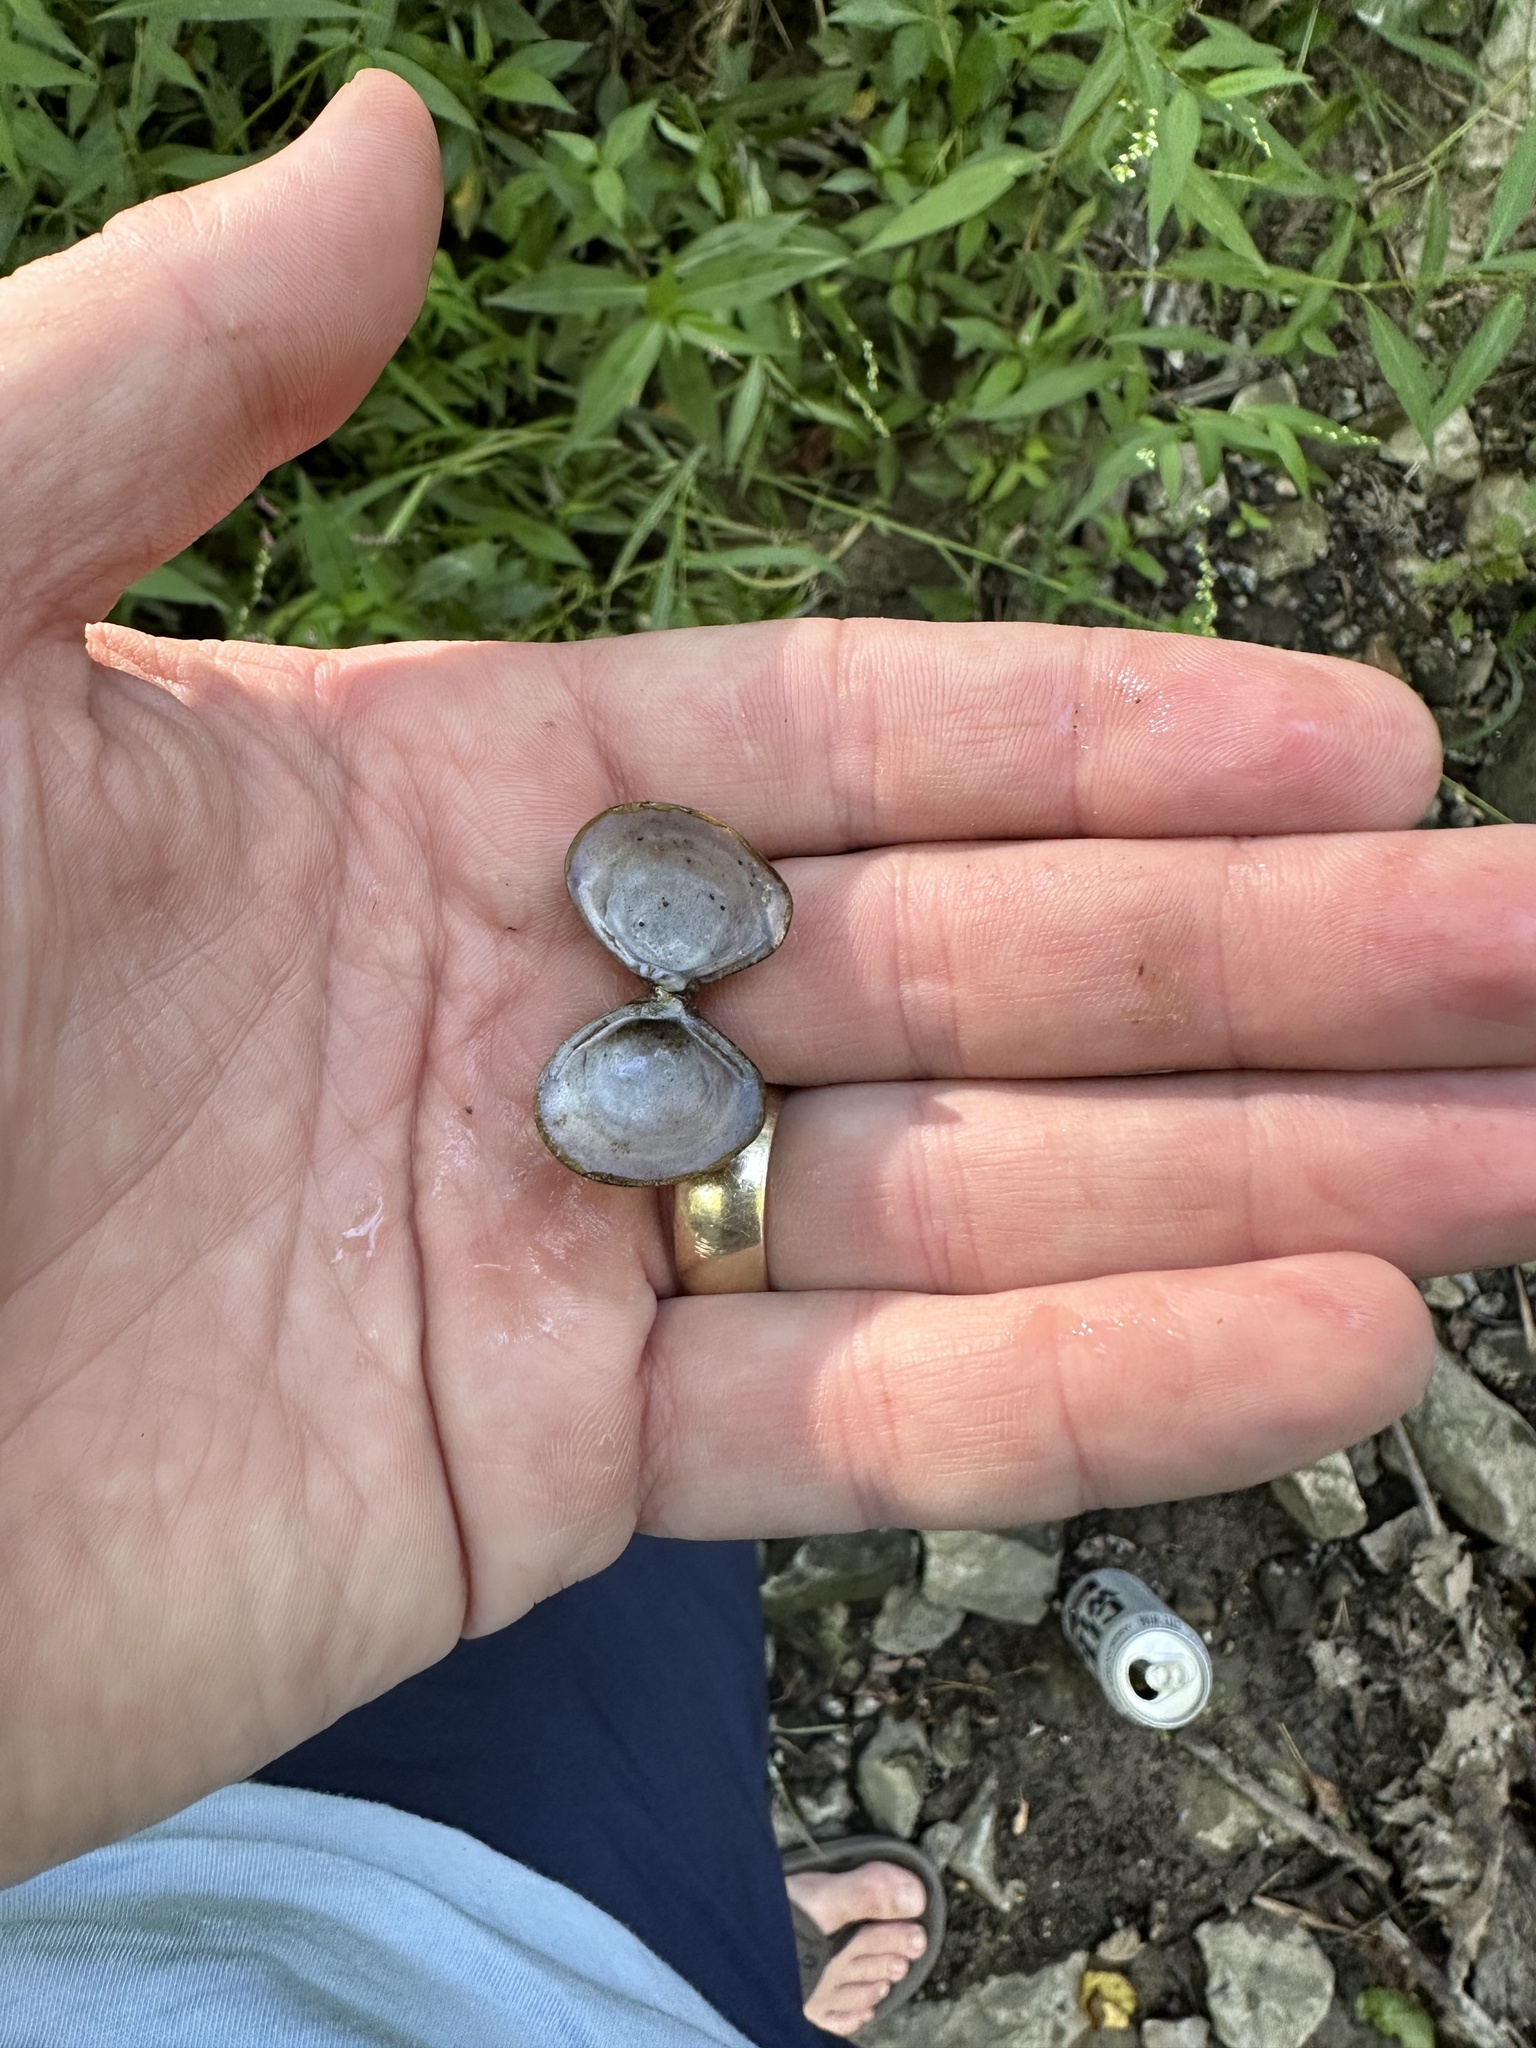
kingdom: Animalia
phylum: Mollusca
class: Bivalvia
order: Venerida
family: Cyrenidae
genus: Corbicula
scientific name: Corbicula fluminea
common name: Asian clam
